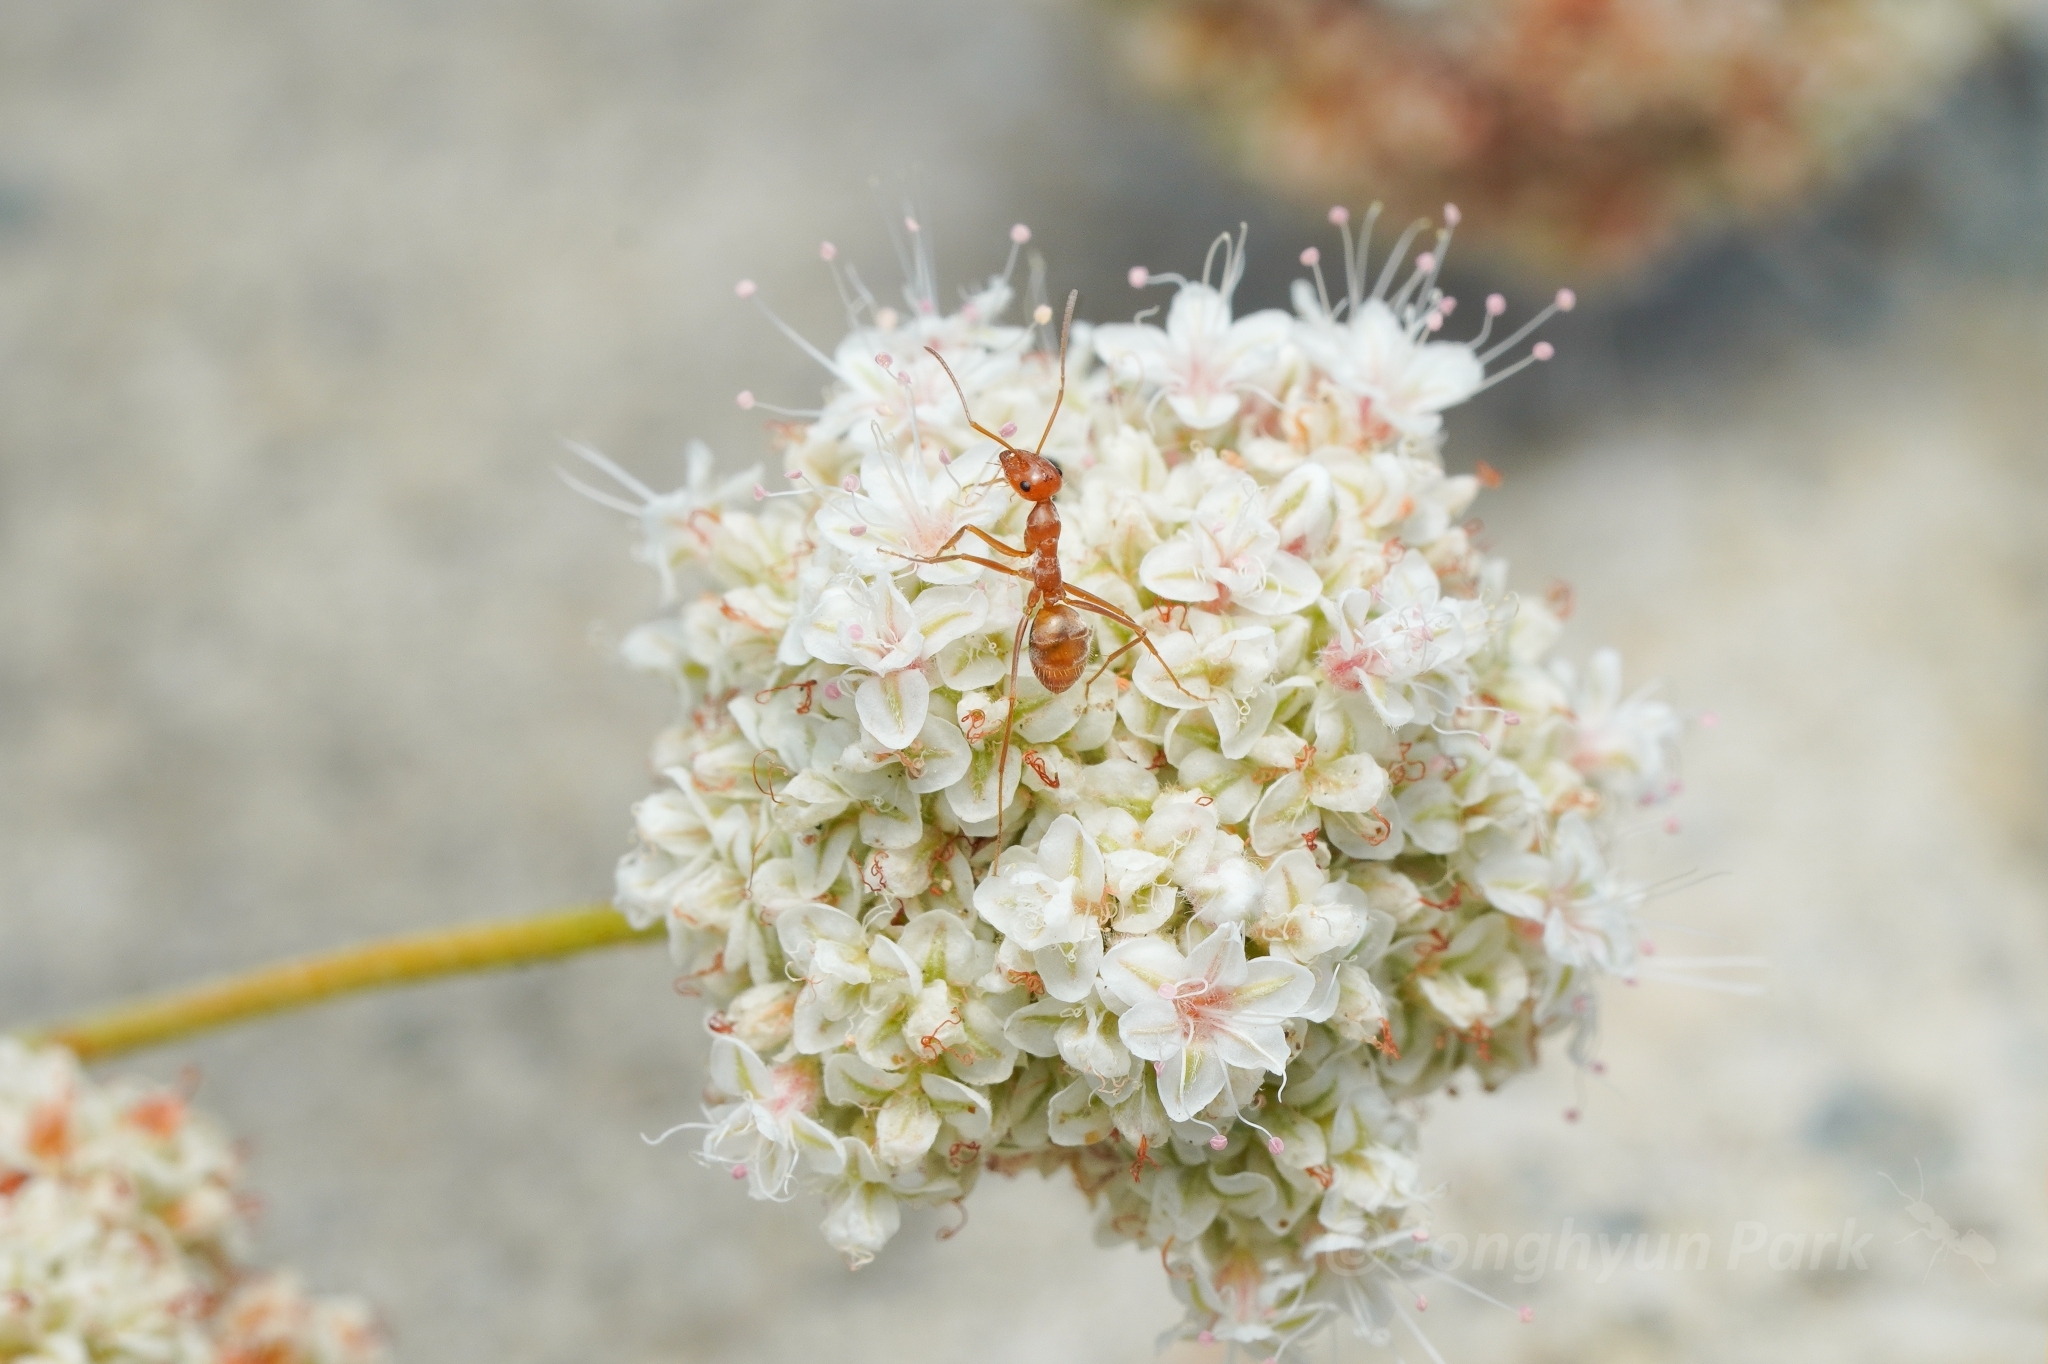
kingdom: Animalia
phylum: Arthropoda
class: Insecta
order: Hymenoptera
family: Formicidae
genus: Myrmecocystus
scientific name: Myrmecocystus wheeleri
